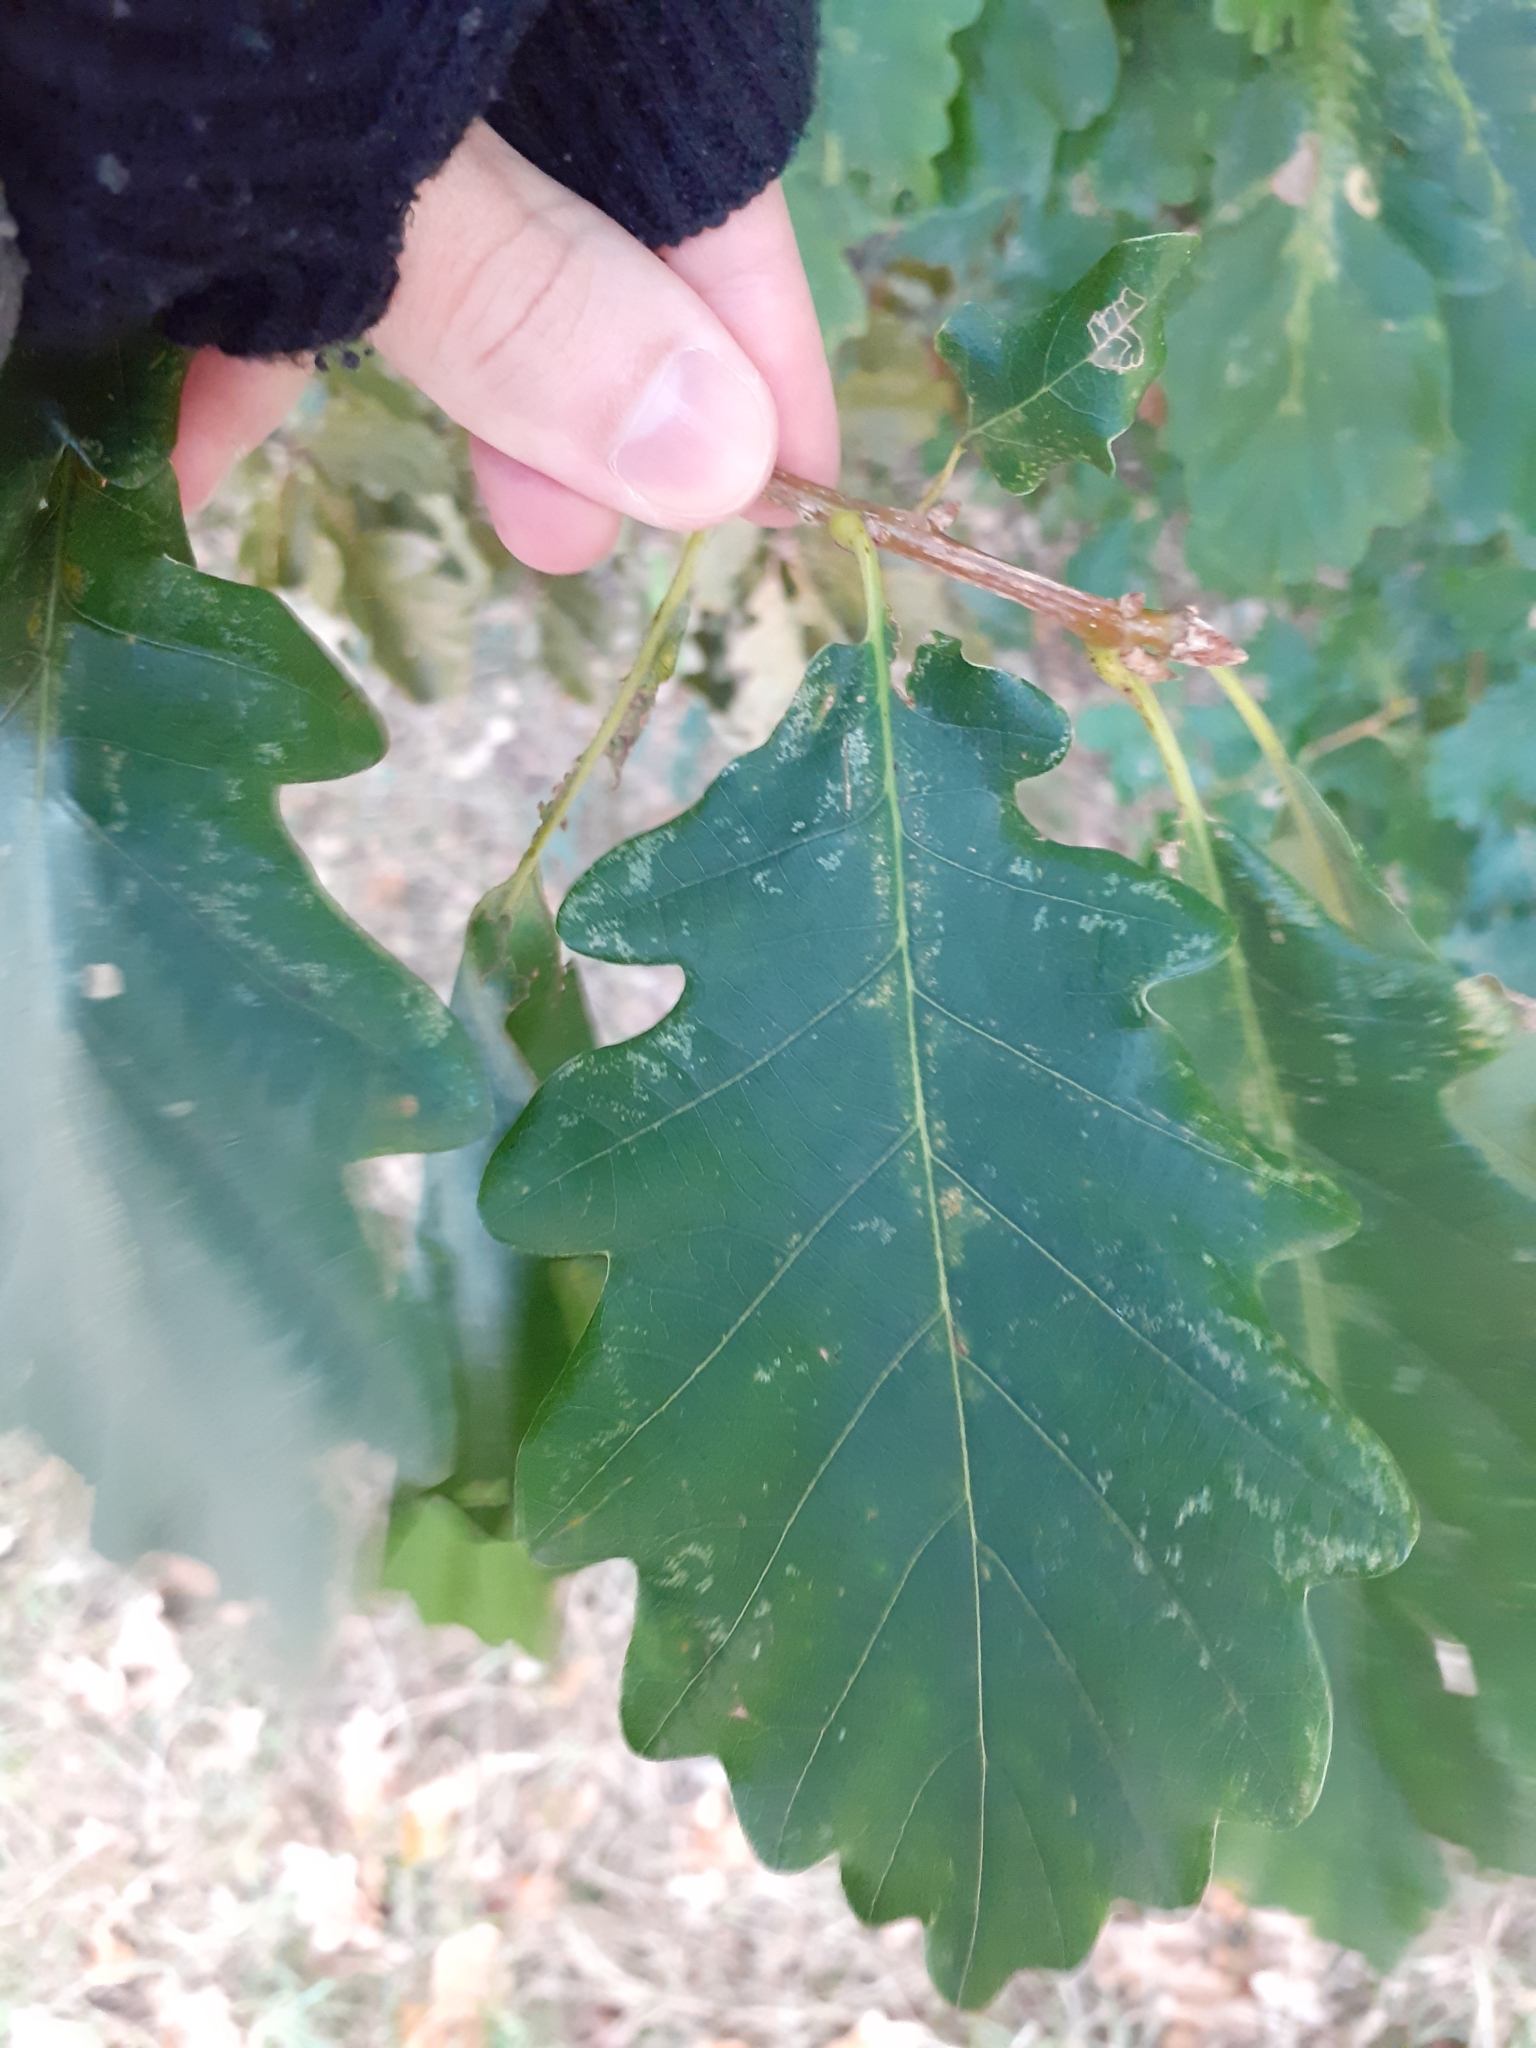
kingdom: Plantae
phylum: Tracheophyta
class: Magnoliopsida
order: Fagales
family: Fagaceae
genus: Quercus
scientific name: Quercus petraea
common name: Sessile oak
